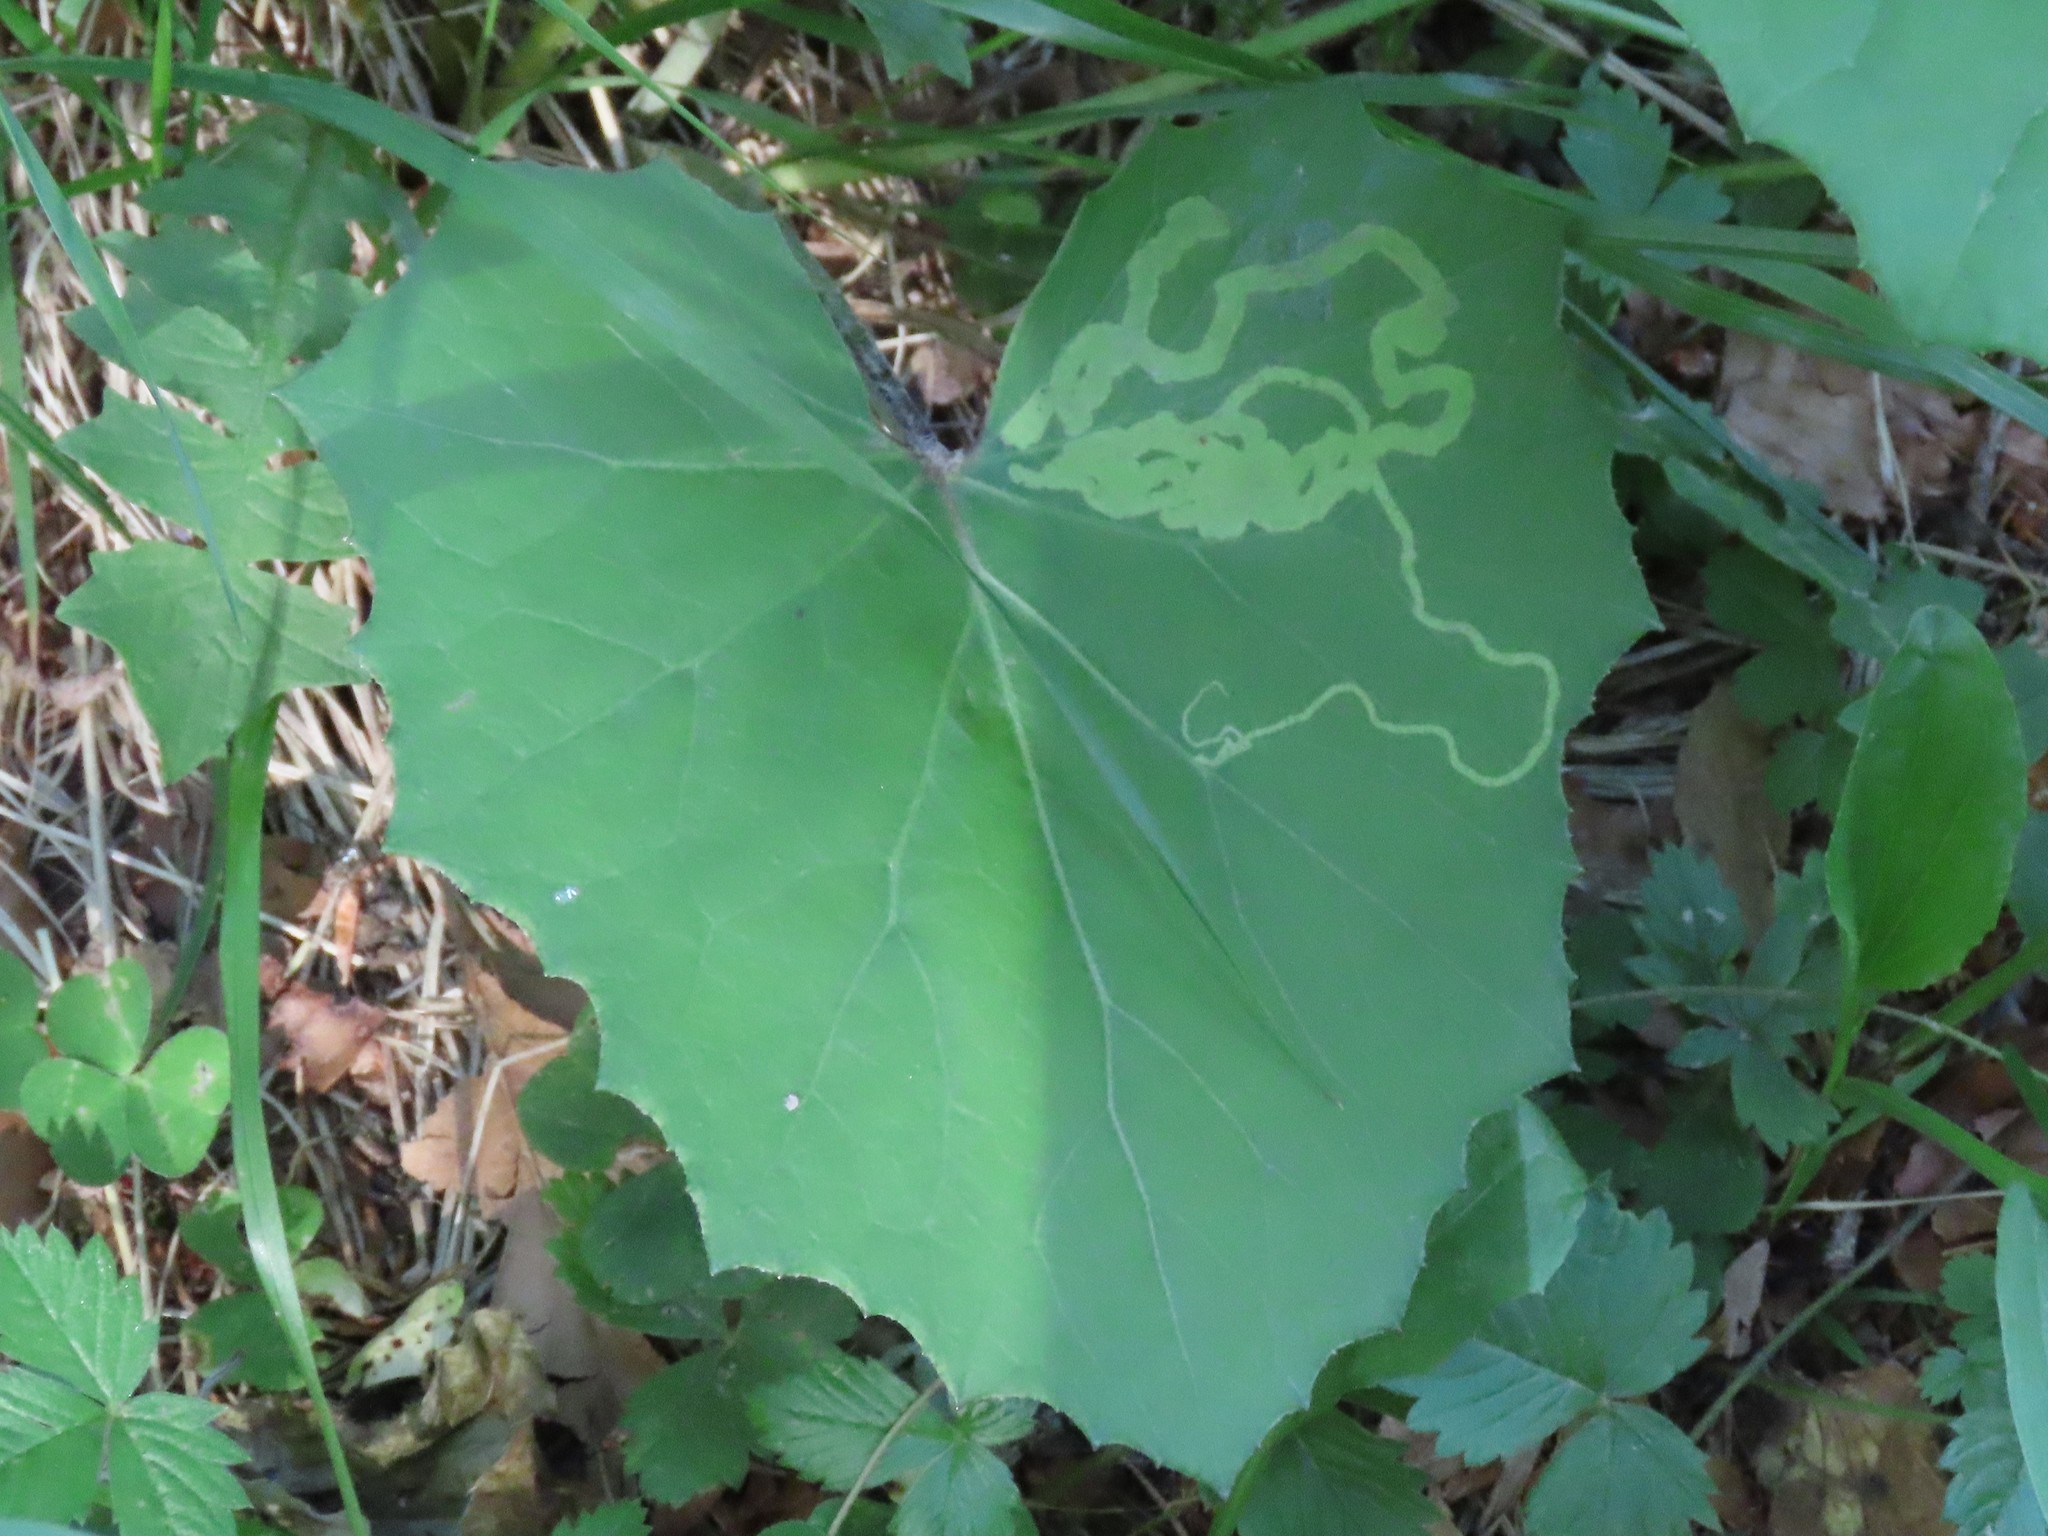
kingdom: Plantae
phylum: Tracheophyta
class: Magnoliopsida
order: Asterales
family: Asteraceae
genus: Tussilago
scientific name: Tussilago farfara
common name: Coltsfoot
